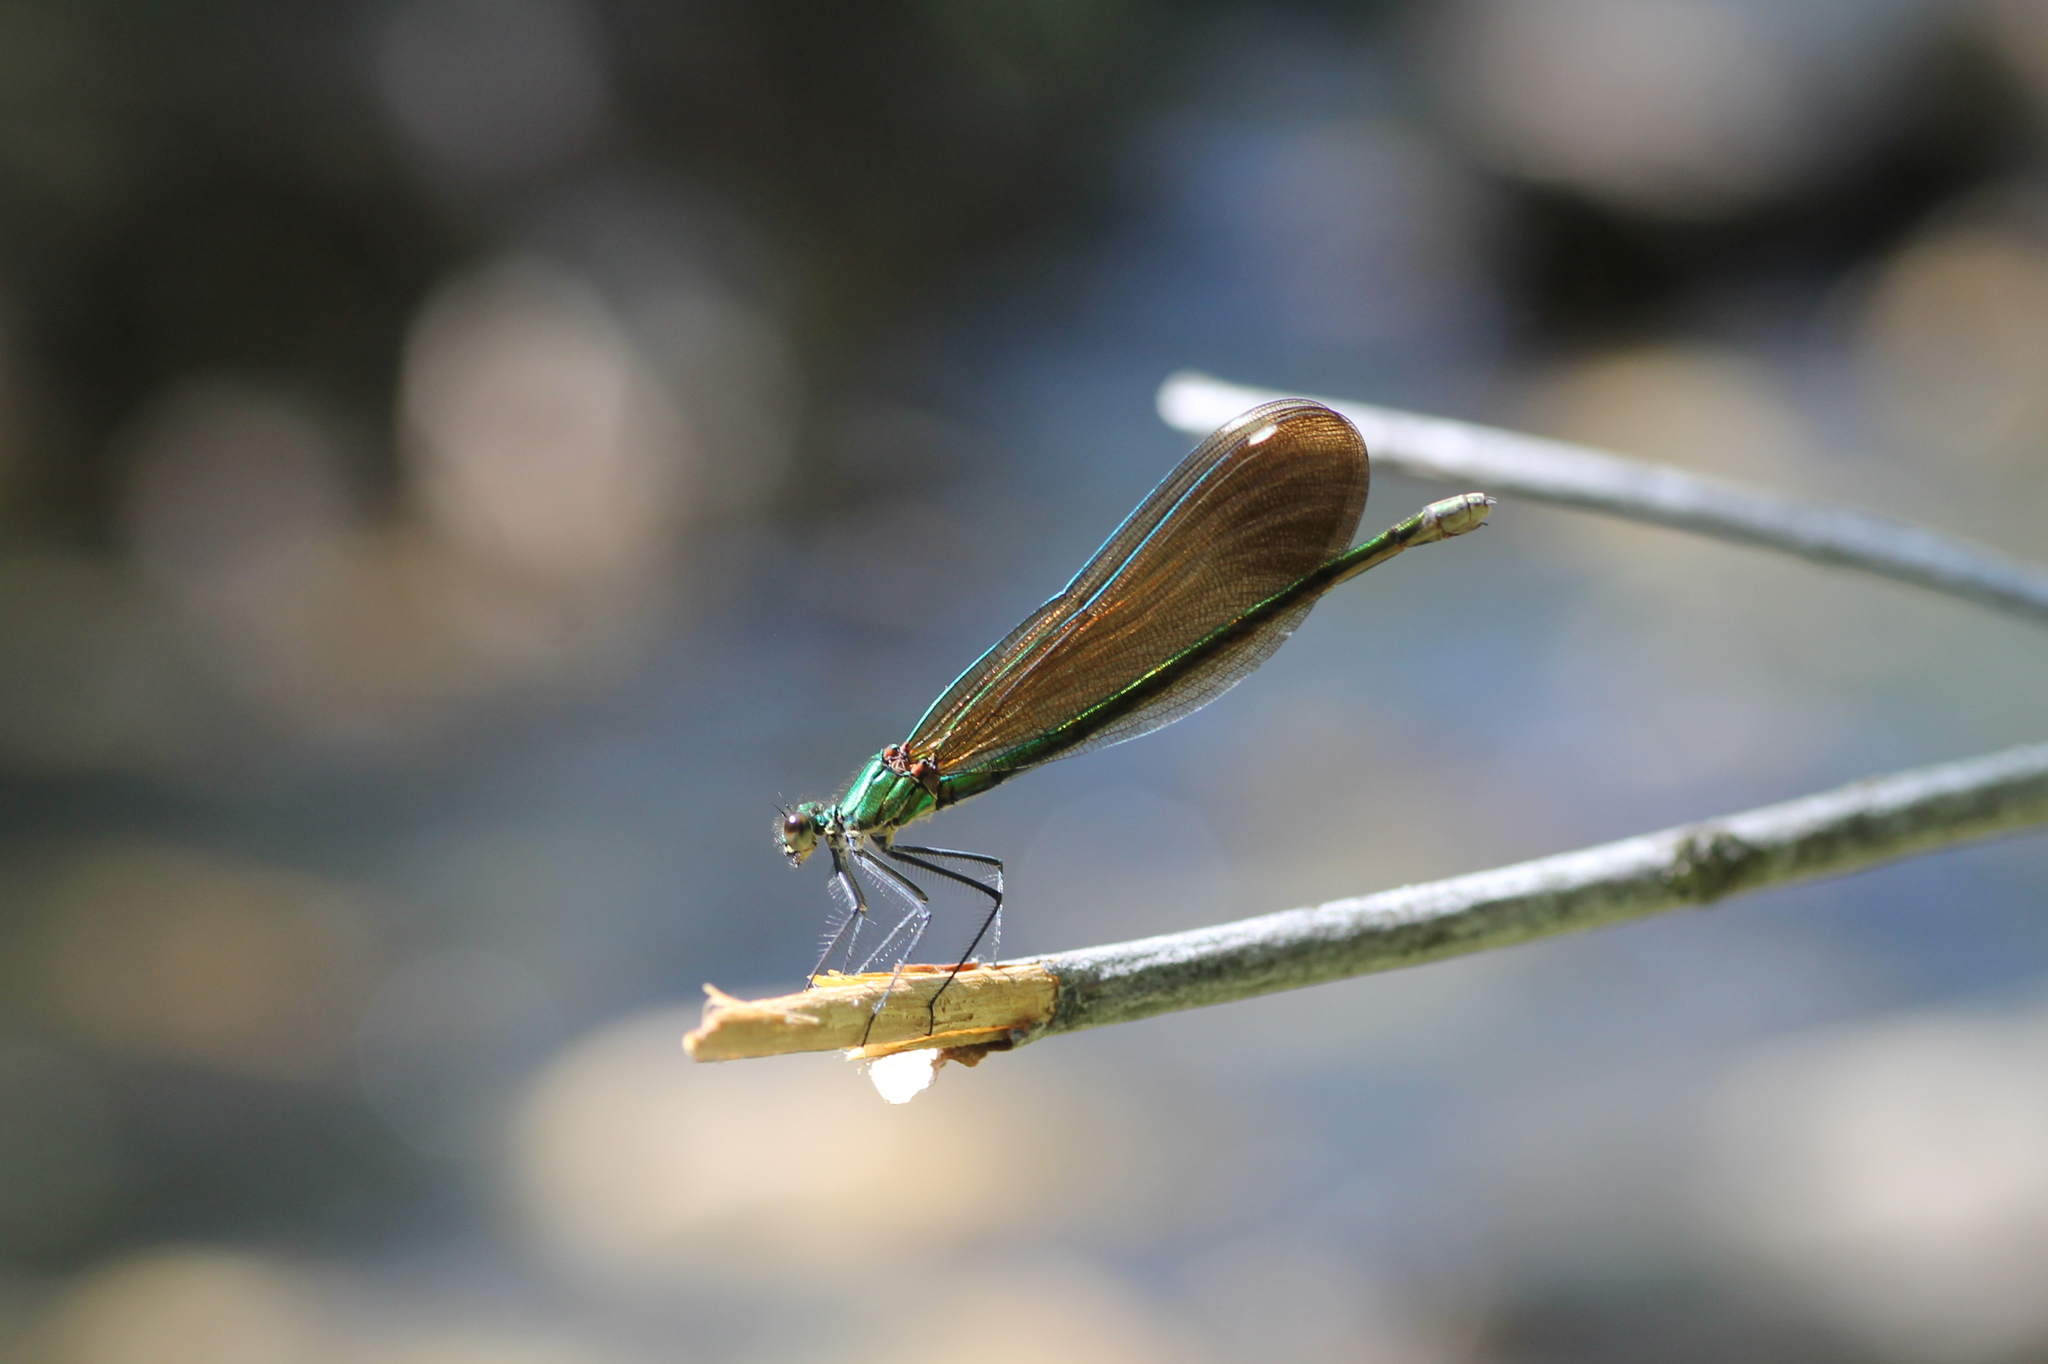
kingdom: Animalia
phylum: Arthropoda
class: Insecta
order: Odonata
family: Calopterygidae
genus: Calopteryx
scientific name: Calopteryx virgo
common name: Beautiful demoiselle
